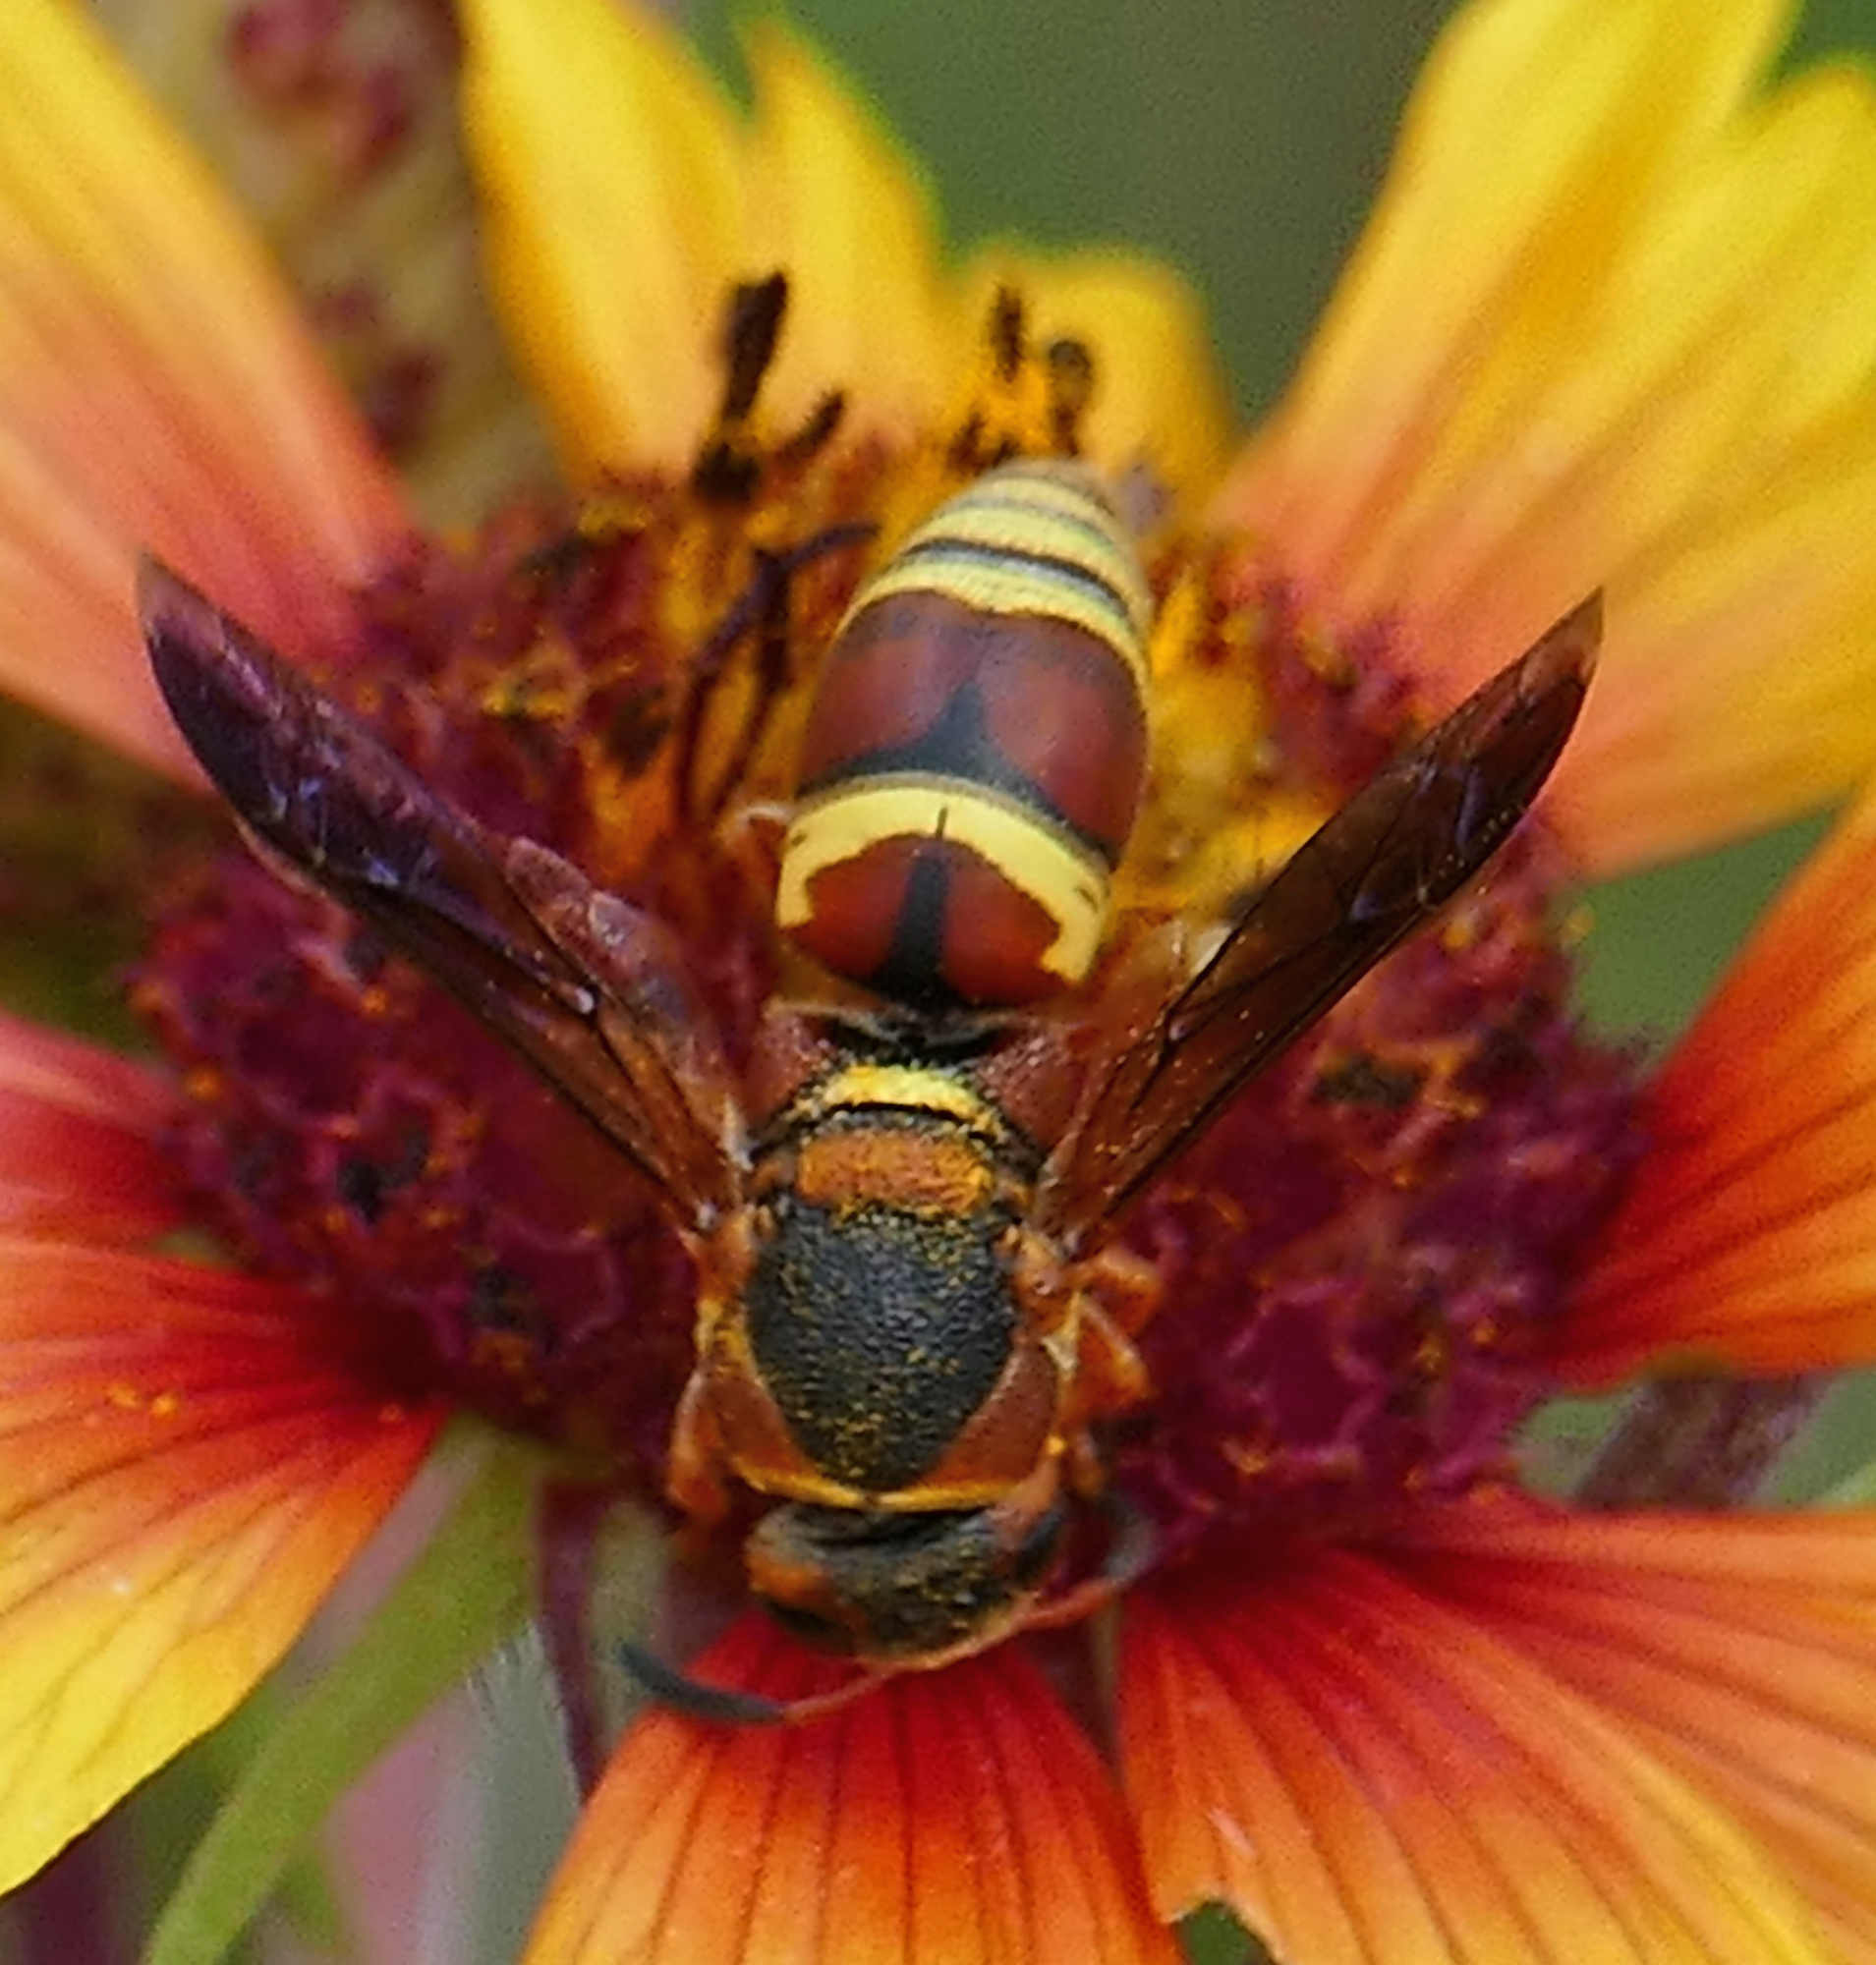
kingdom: Animalia
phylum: Arthropoda
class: Insecta
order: Hymenoptera
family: Eumenidae
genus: Euodynerus
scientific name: Euodynerus hidalgo
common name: Wasp
